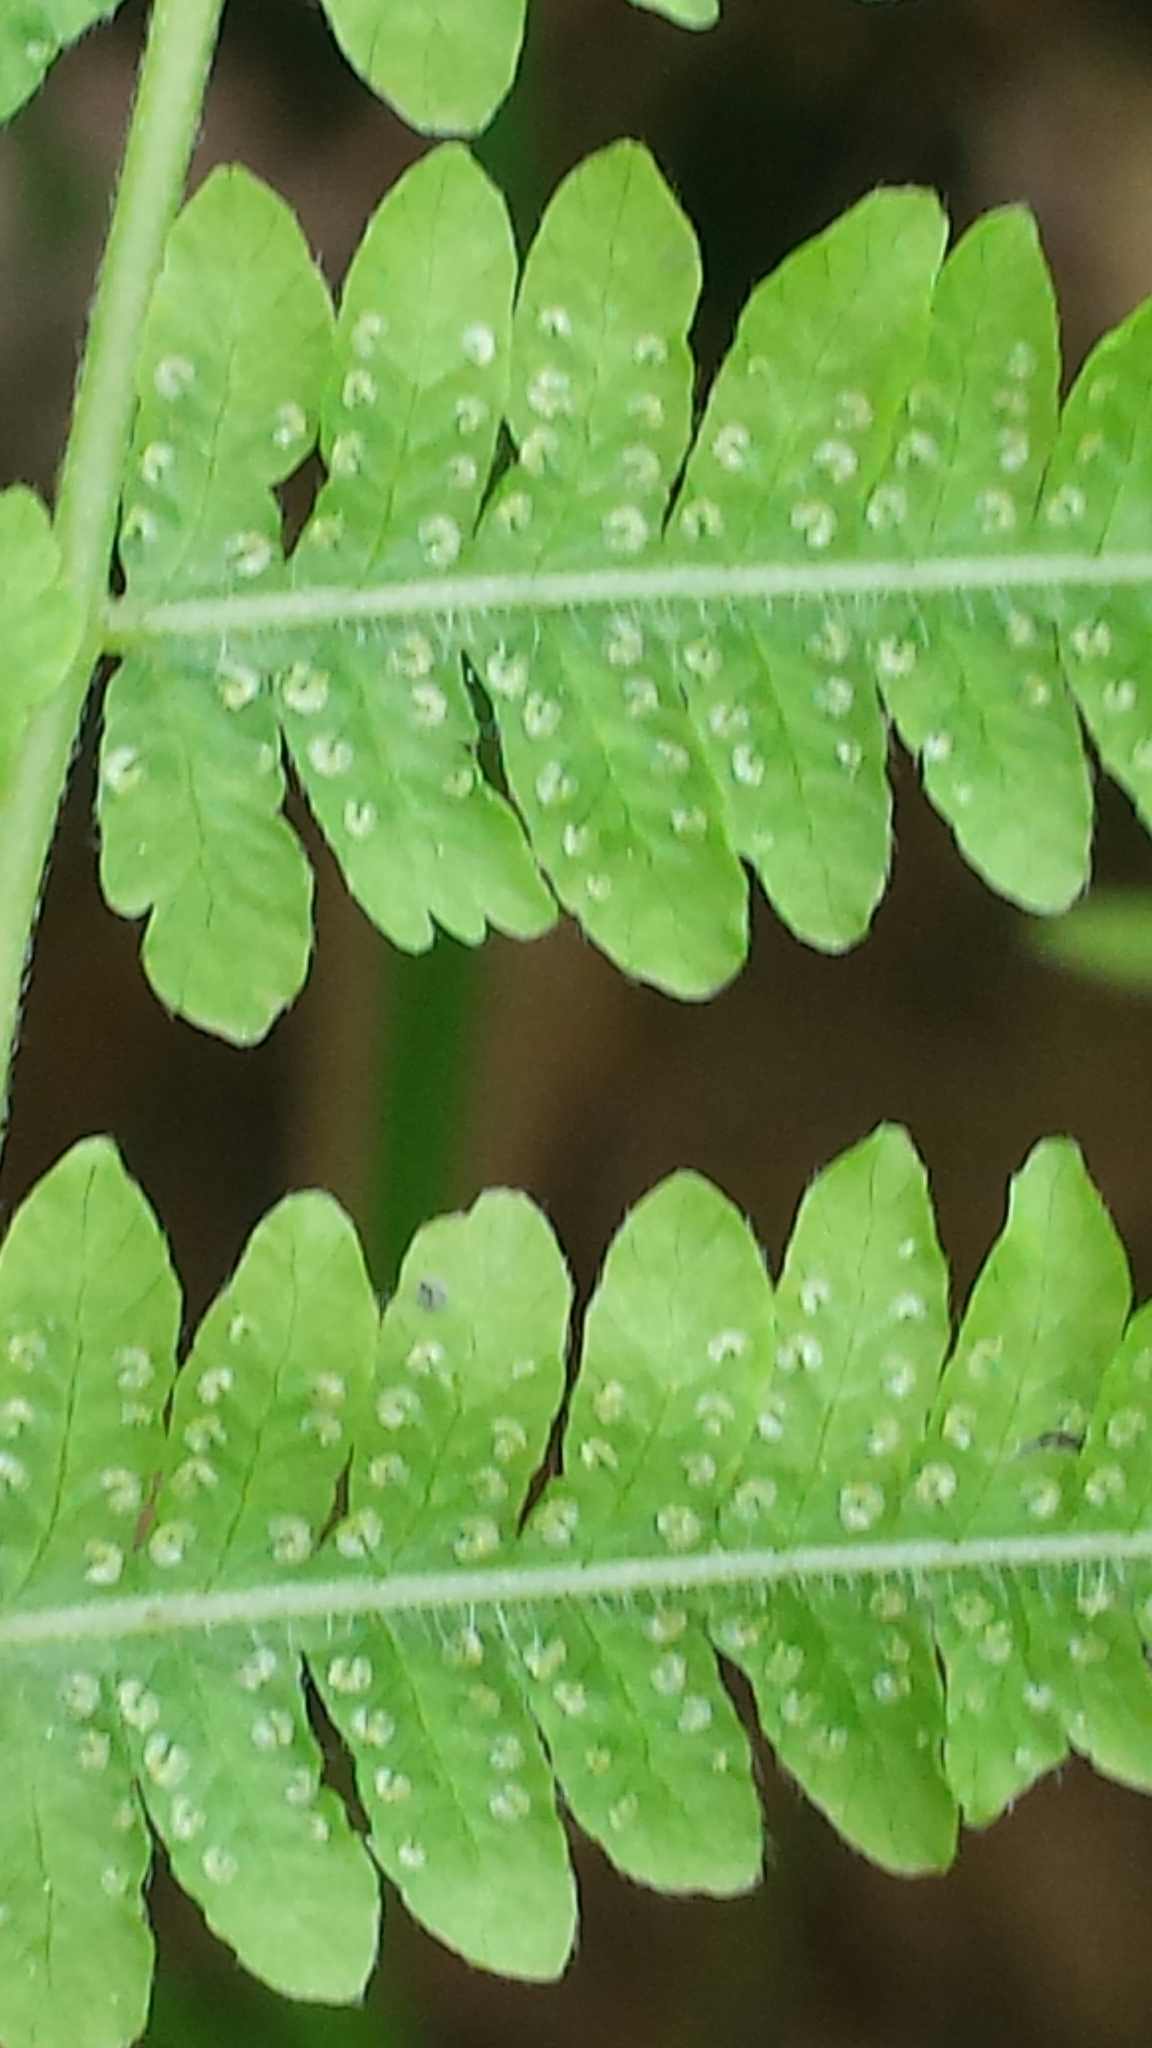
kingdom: Plantae
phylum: Tracheophyta
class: Polypodiopsida
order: Polypodiales
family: Thelypteridaceae
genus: Amauropelta
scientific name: Amauropelta noveboracensis
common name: New york fern
